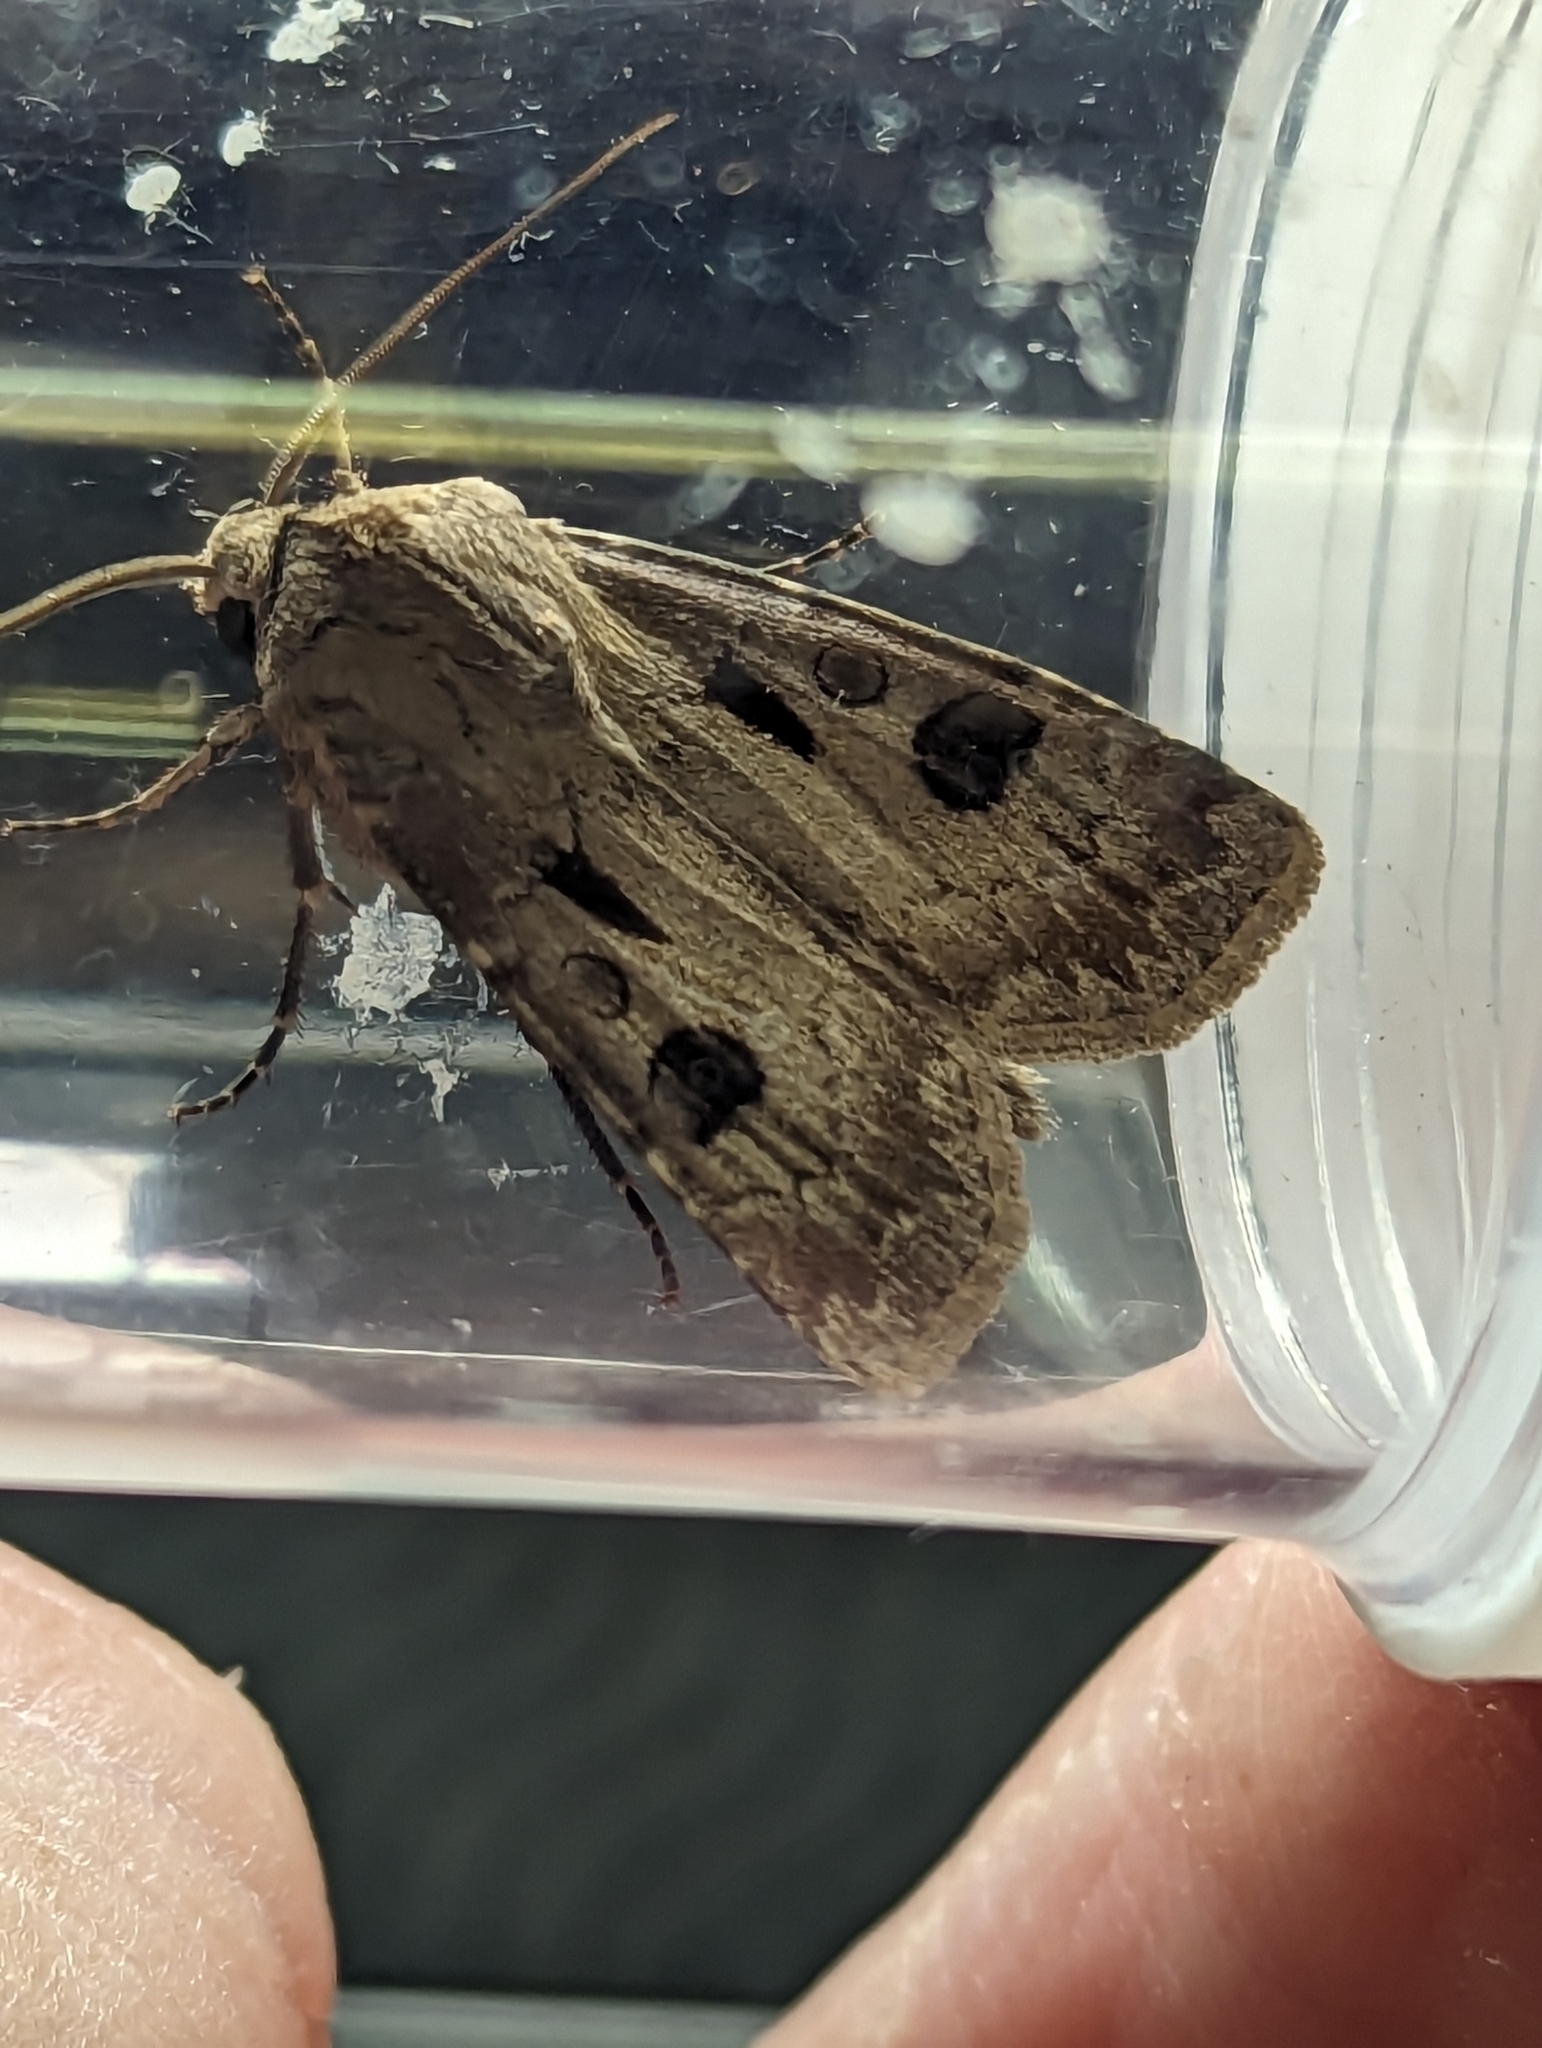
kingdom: Animalia
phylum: Arthropoda
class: Insecta
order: Lepidoptera
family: Noctuidae
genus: Agrotis
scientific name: Agrotis exclamationis
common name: Heart and dart
